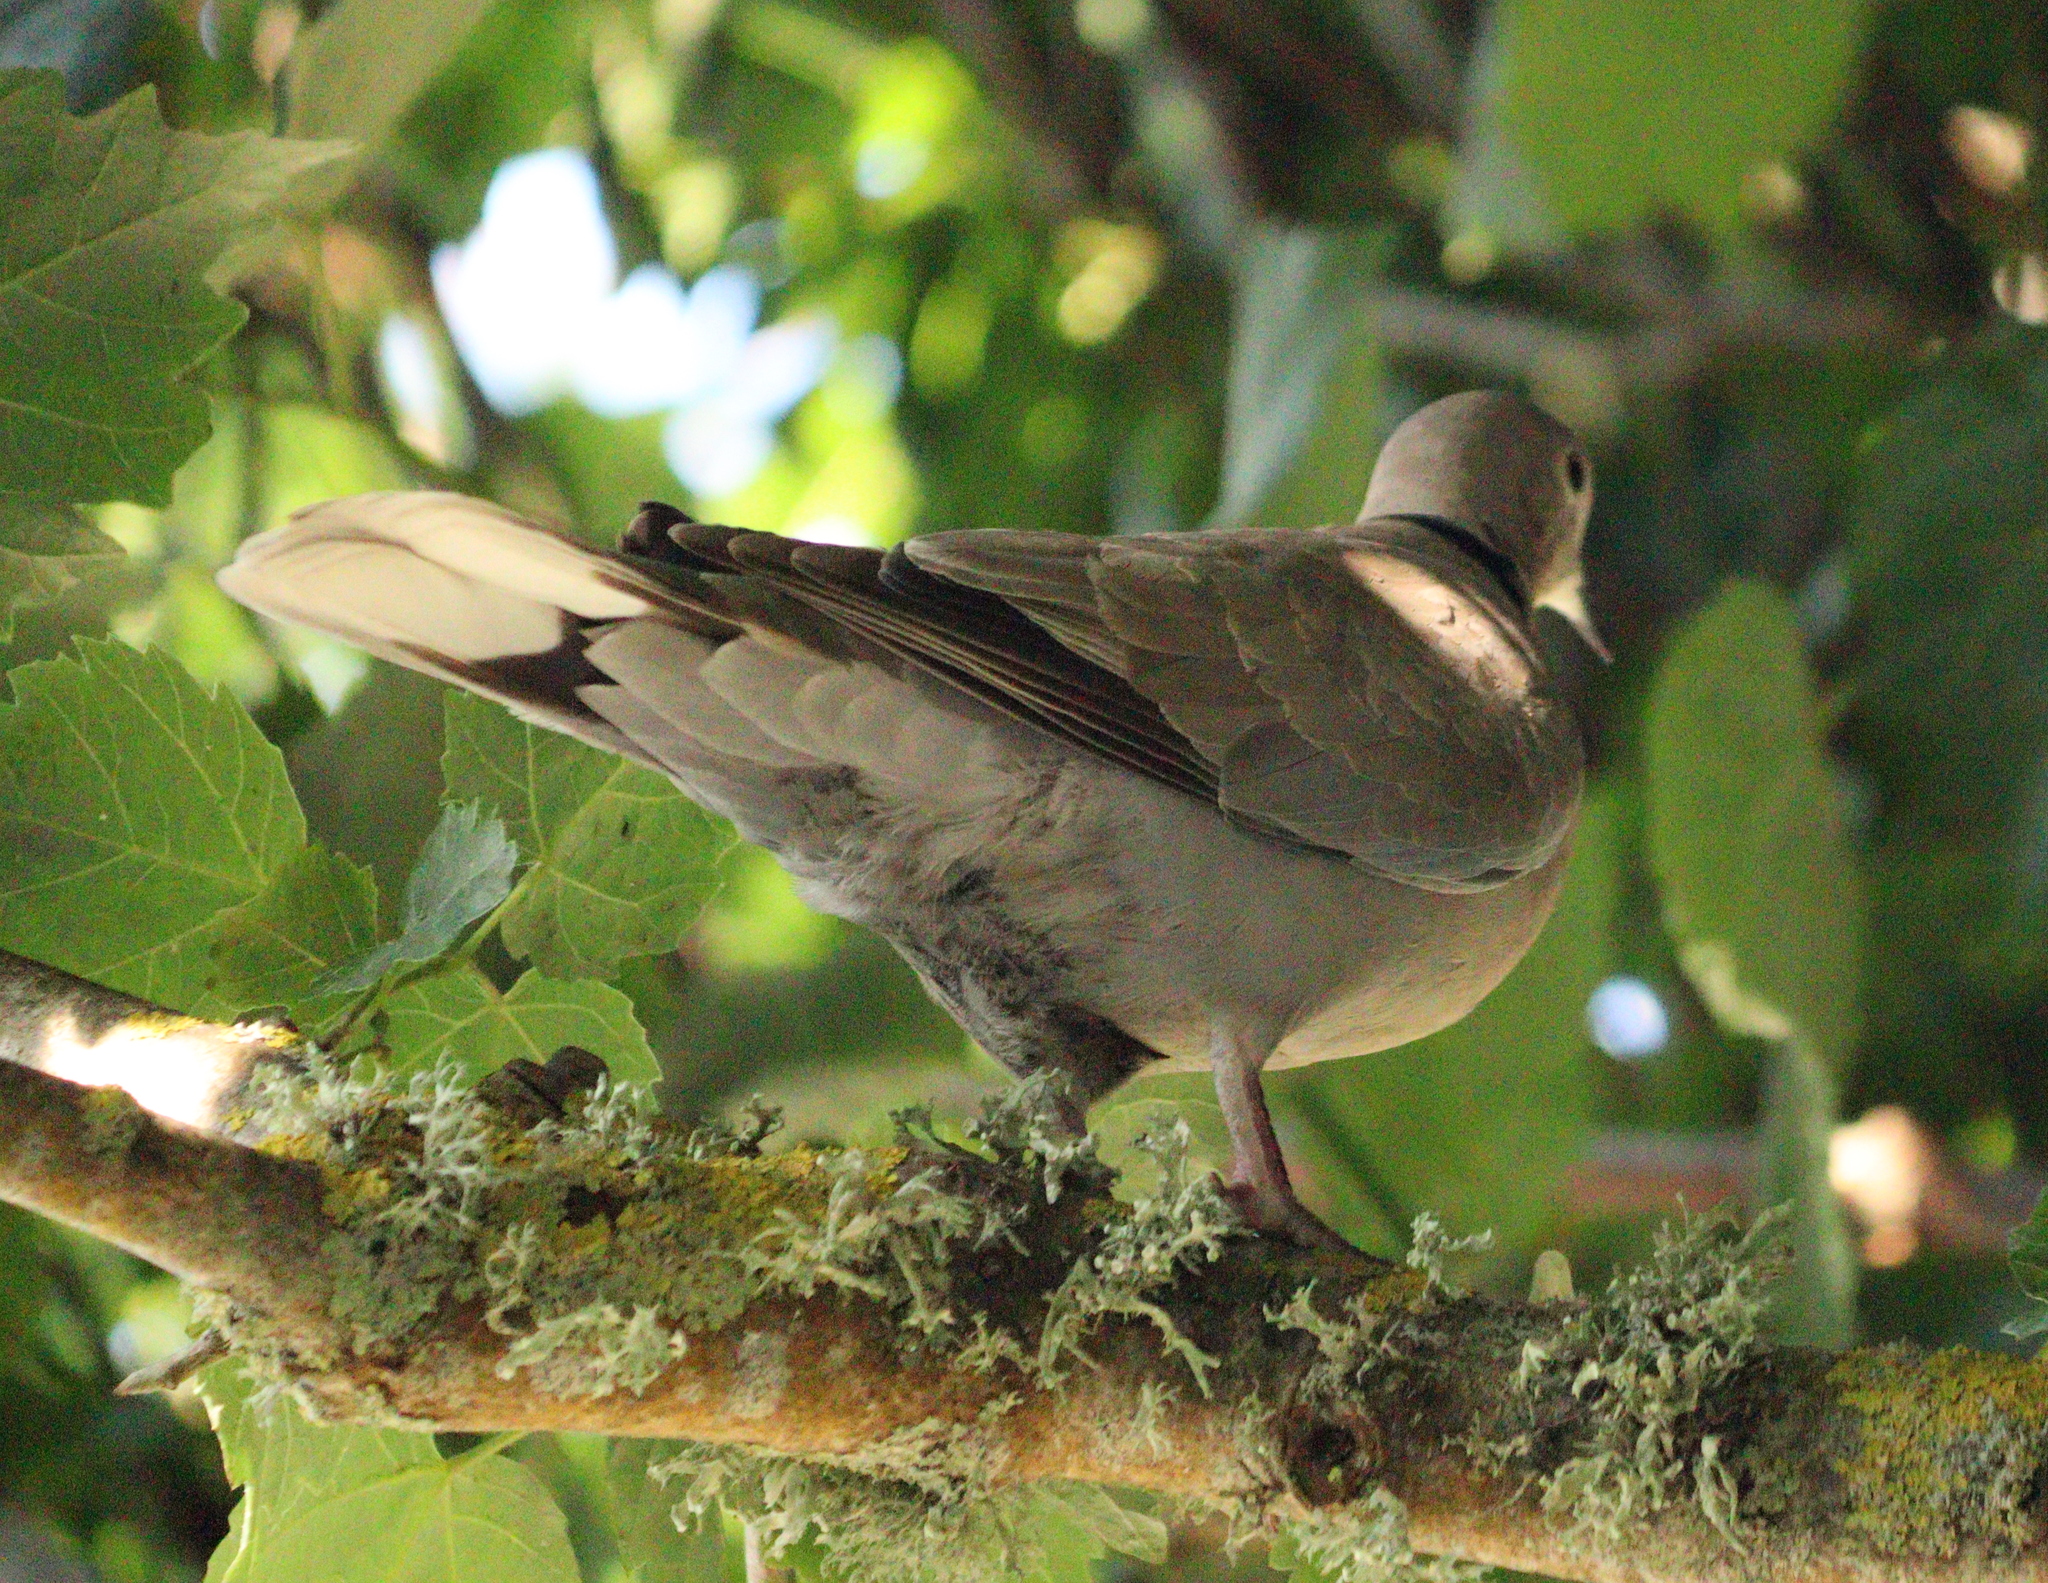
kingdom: Animalia
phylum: Chordata
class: Aves
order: Columbiformes
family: Columbidae
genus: Streptopelia
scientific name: Streptopelia decaocto
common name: Eurasian collared dove
